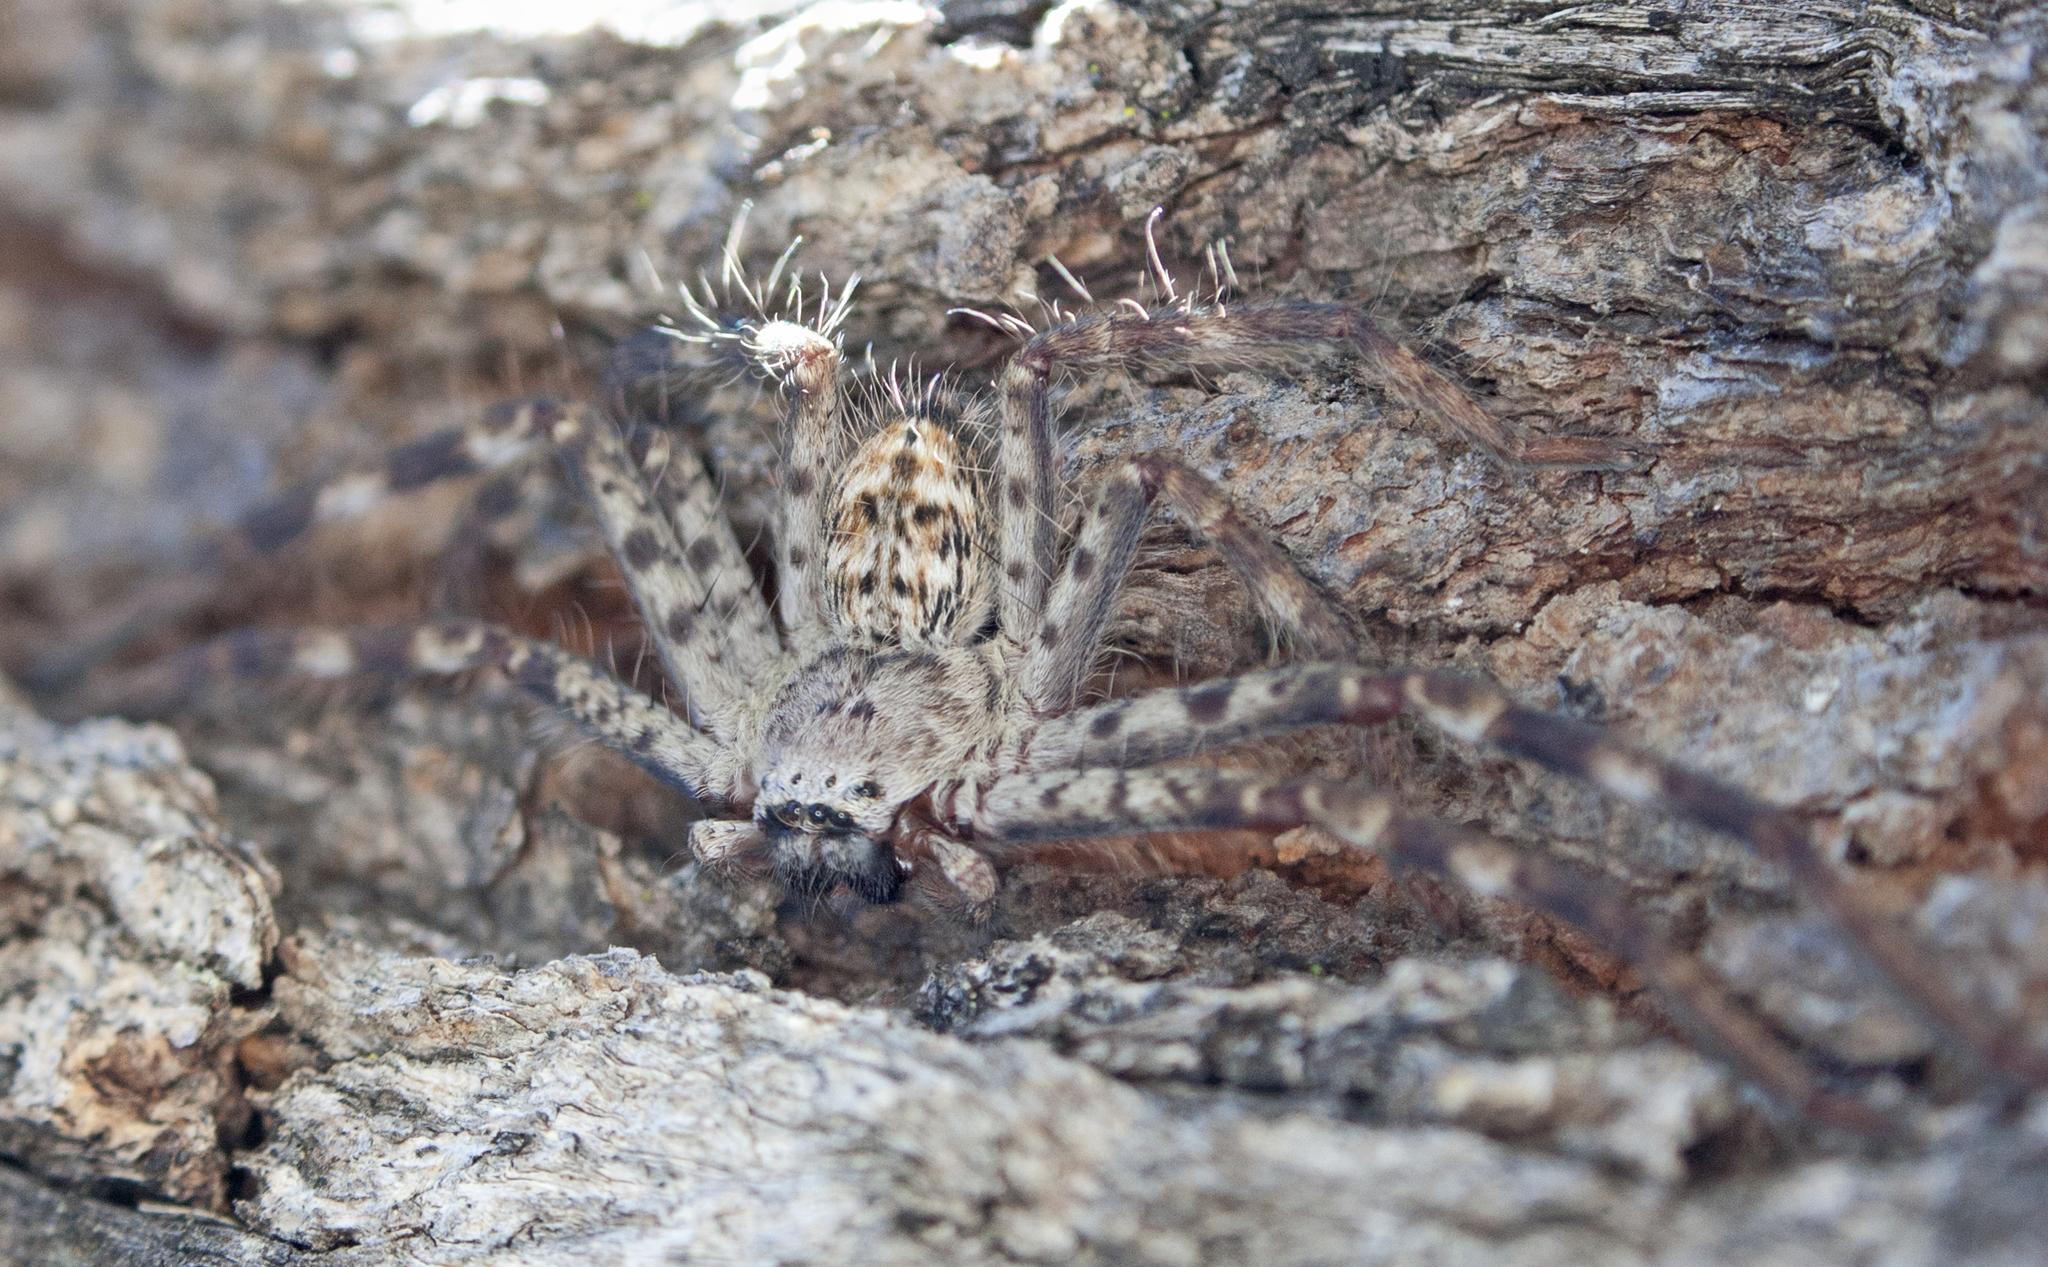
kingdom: Animalia
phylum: Arthropoda
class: Arachnida
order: Araneae
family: Sparassidae
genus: Holconia
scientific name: Holconia immanis
